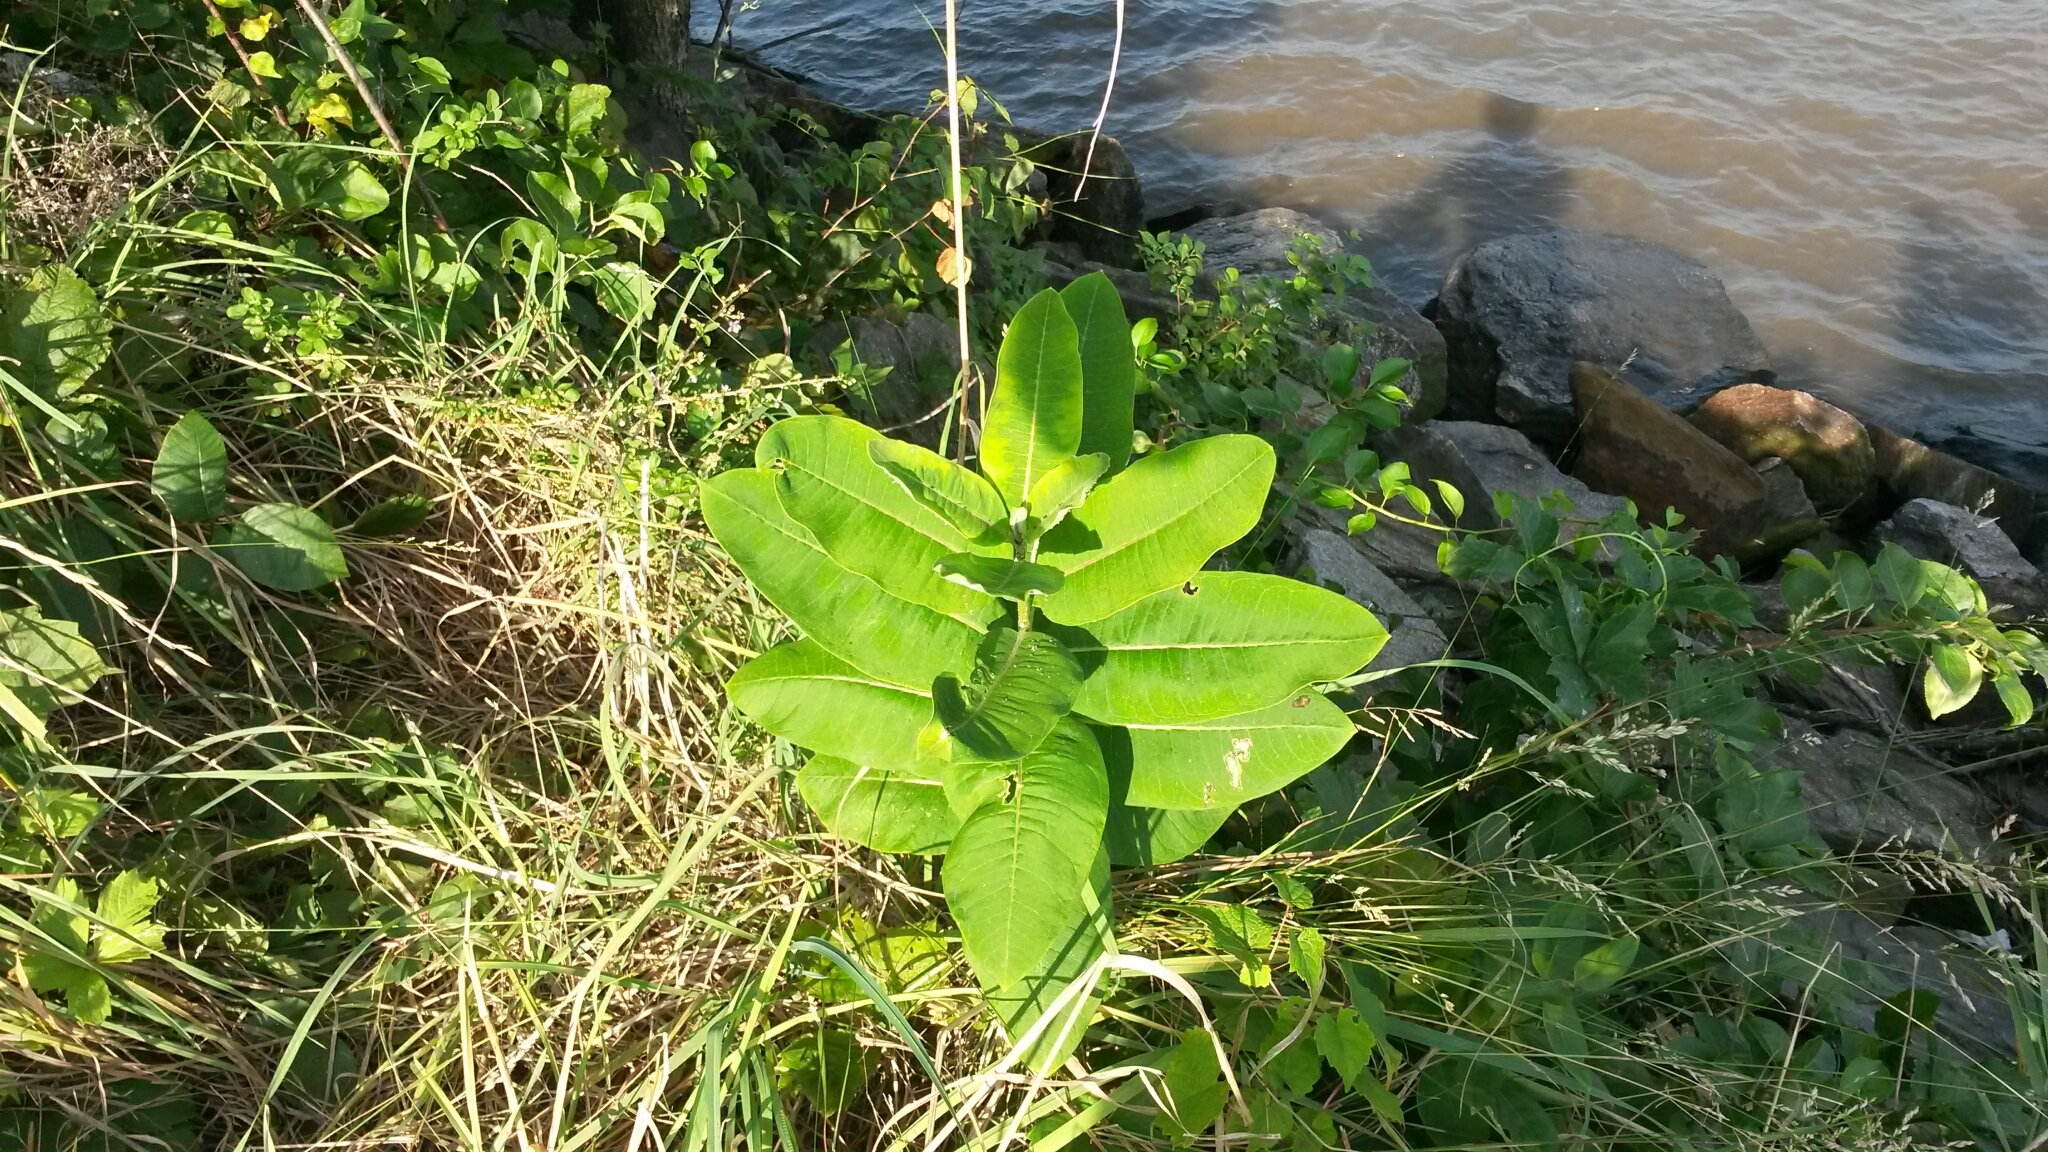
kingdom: Plantae
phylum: Tracheophyta
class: Magnoliopsida
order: Gentianales
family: Apocynaceae
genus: Asclepias
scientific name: Asclepias syriaca
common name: Common milkweed
